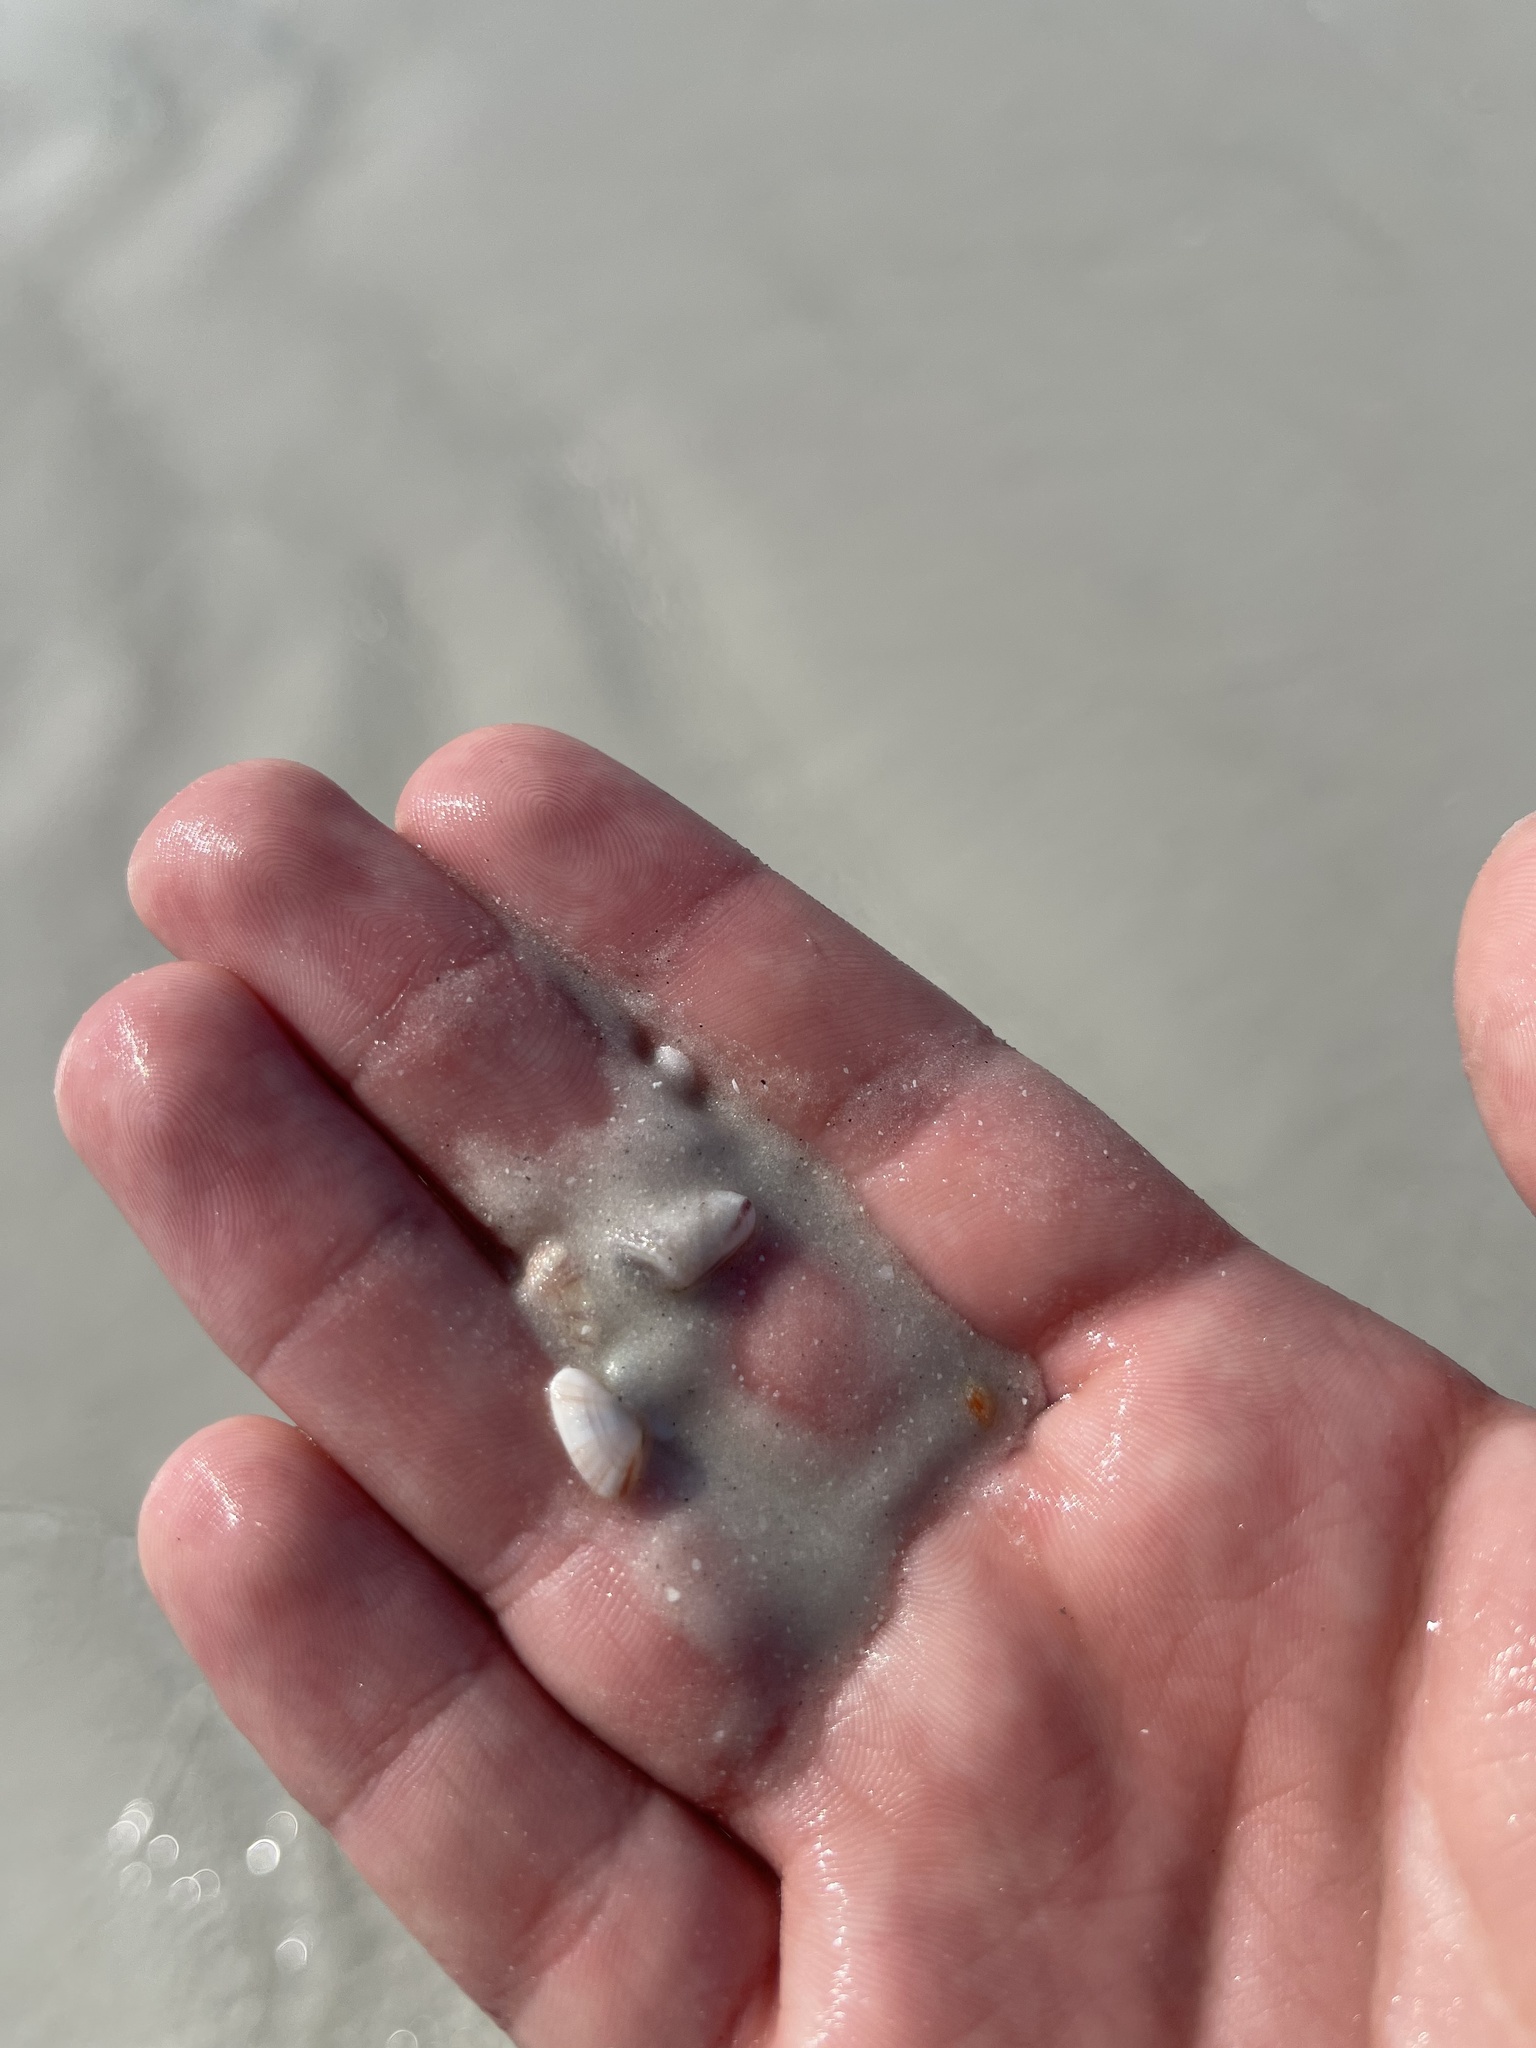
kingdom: Animalia
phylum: Mollusca
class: Bivalvia
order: Cardiida
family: Donacidae
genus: Donax
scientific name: Donax variabilis
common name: Butterfly shell
